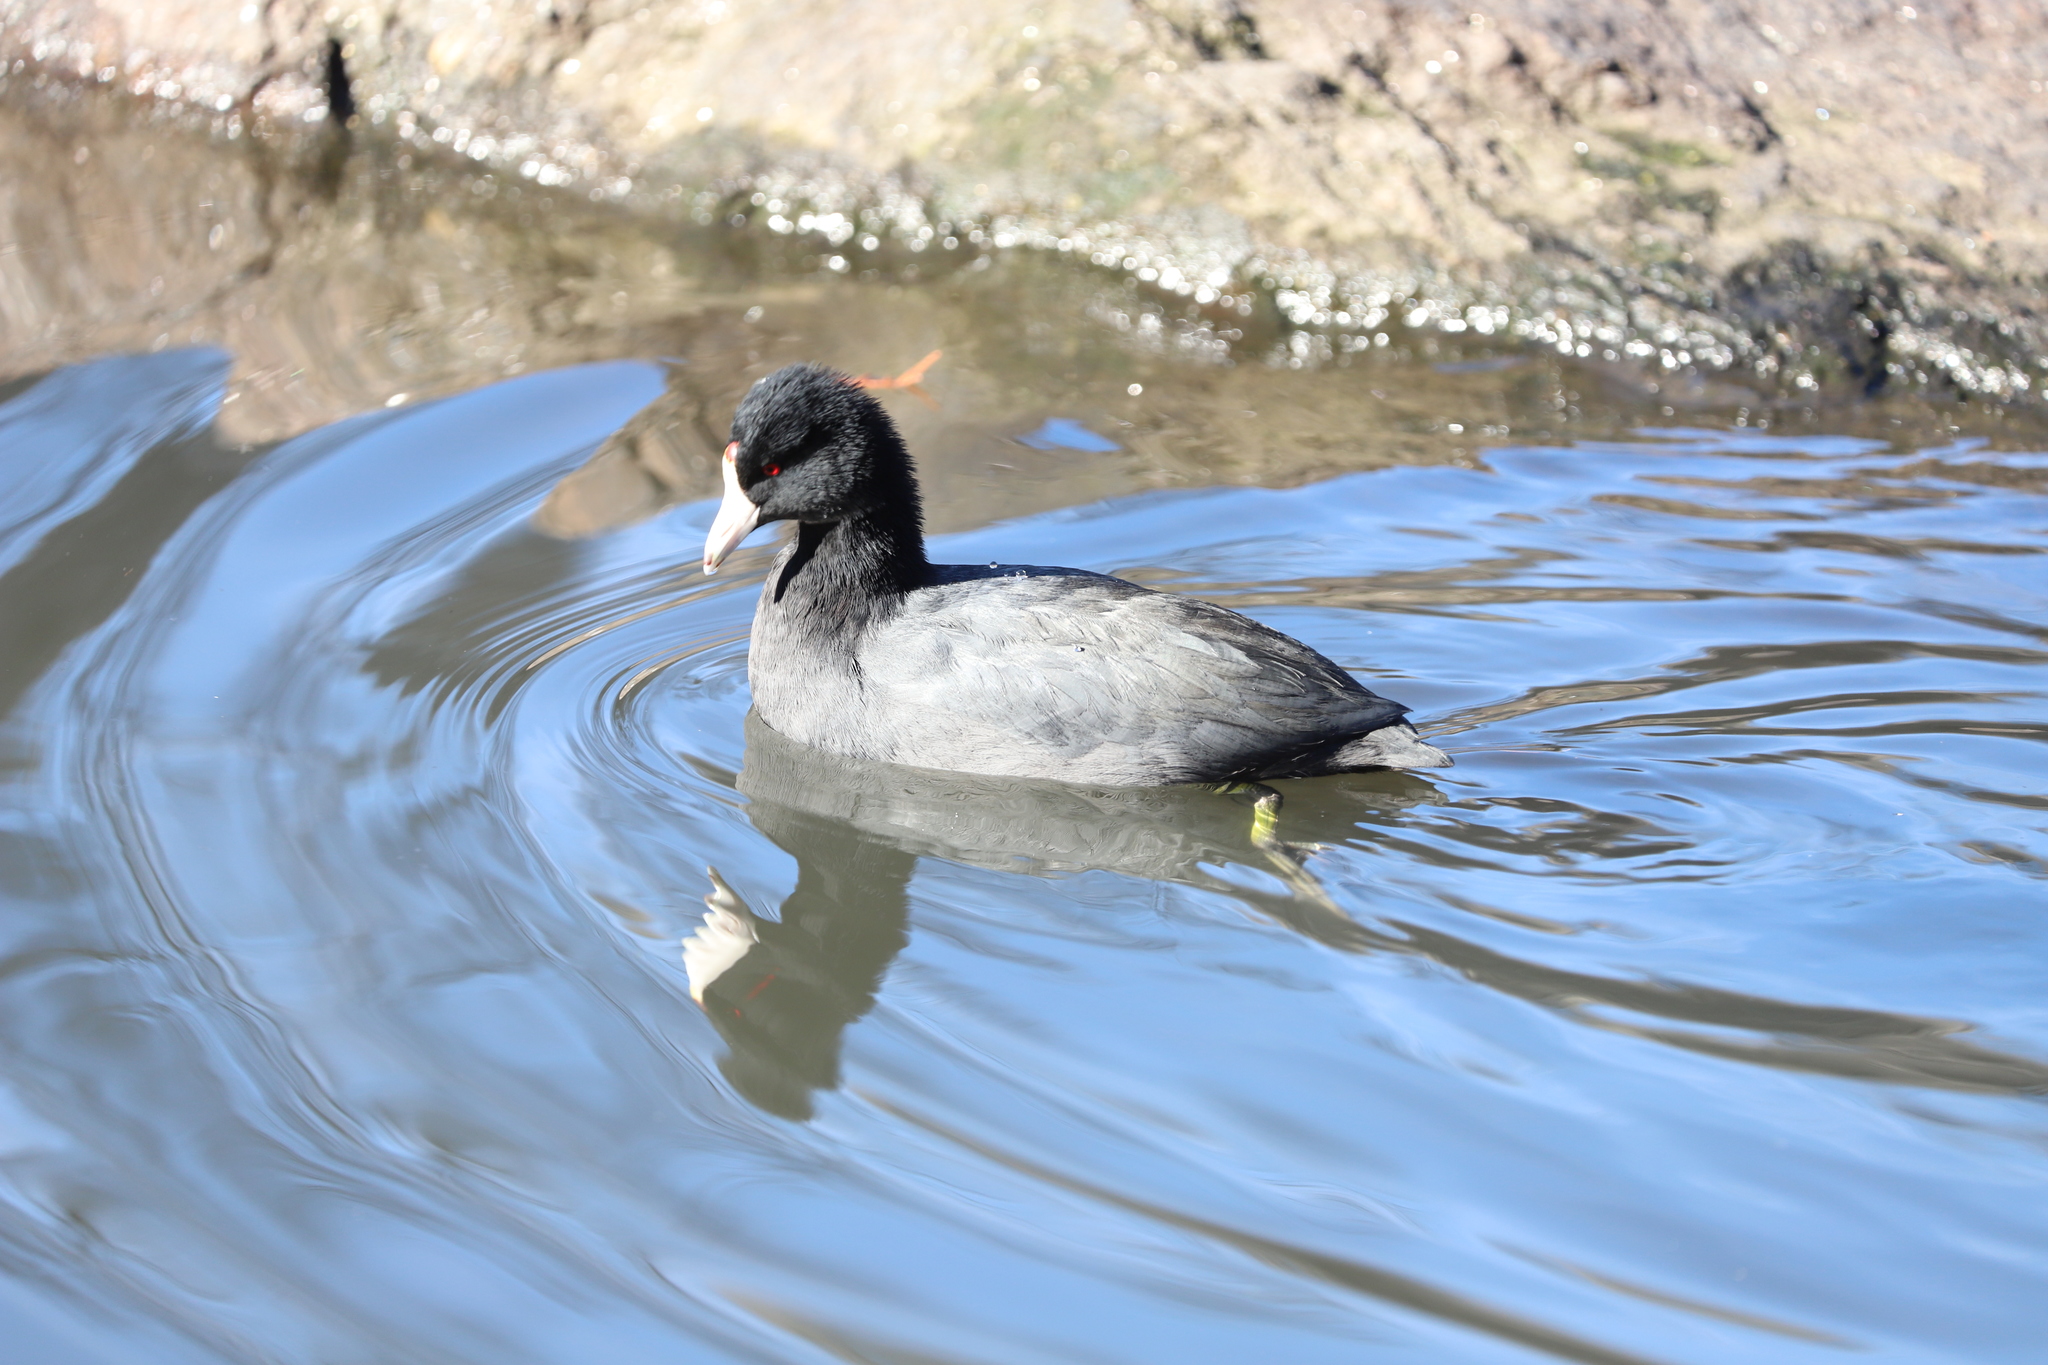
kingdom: Animalia
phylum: Chordata
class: Aves
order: Gruiformes
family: Rallidae
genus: Fulica
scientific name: Fulica americana
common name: American coot
